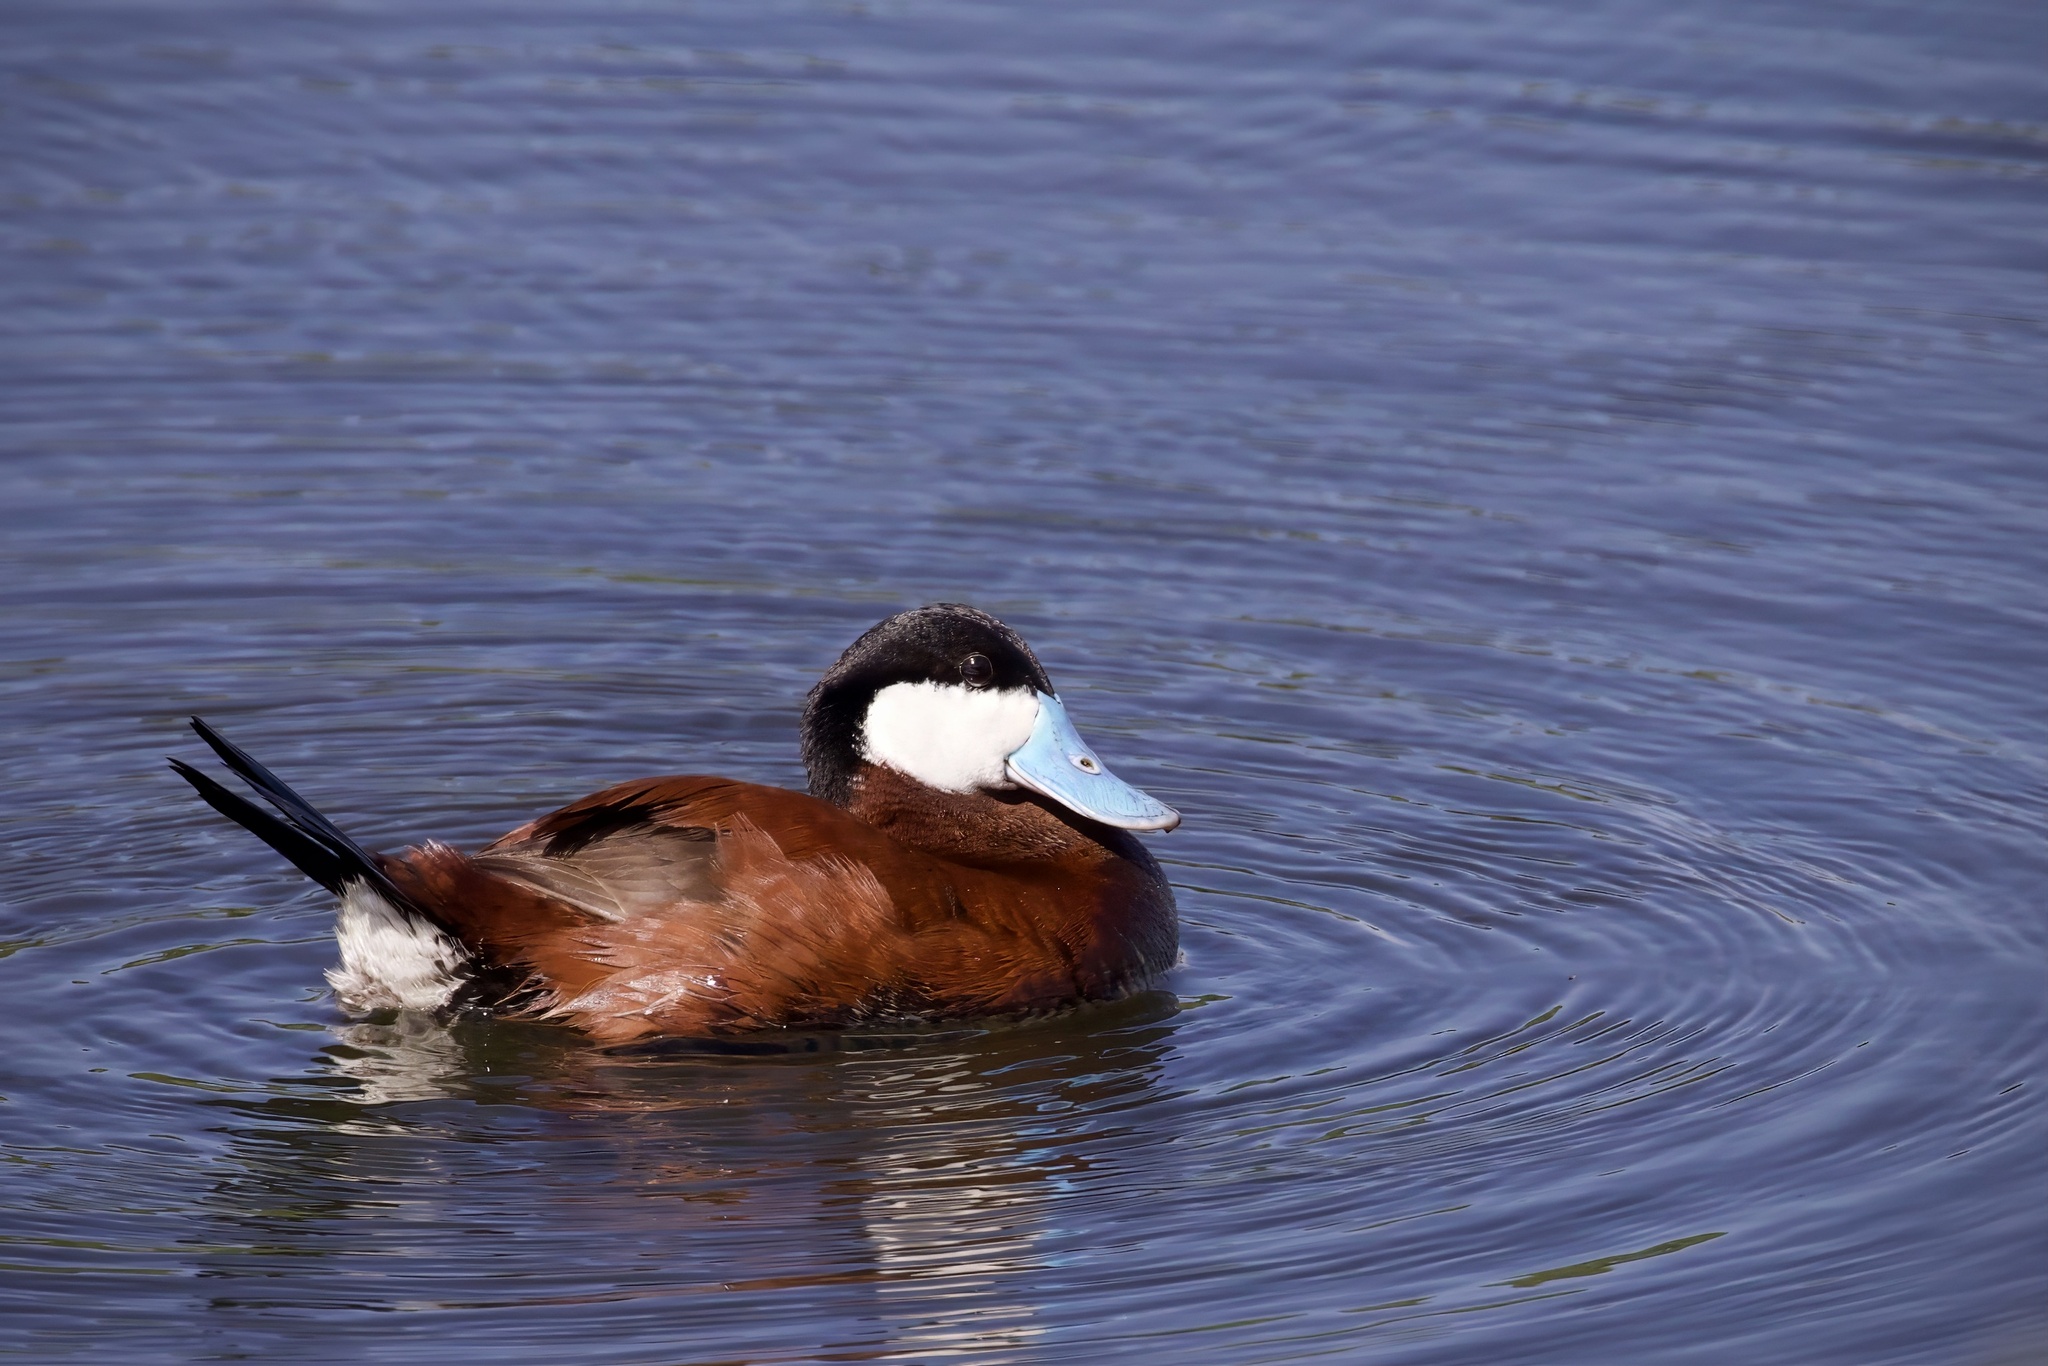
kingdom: Animalia
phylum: Chordata
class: Aves
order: Anseriformes
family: Anatidae
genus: Oxyura
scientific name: Oxyura jamaicensis
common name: Ruddy duck
